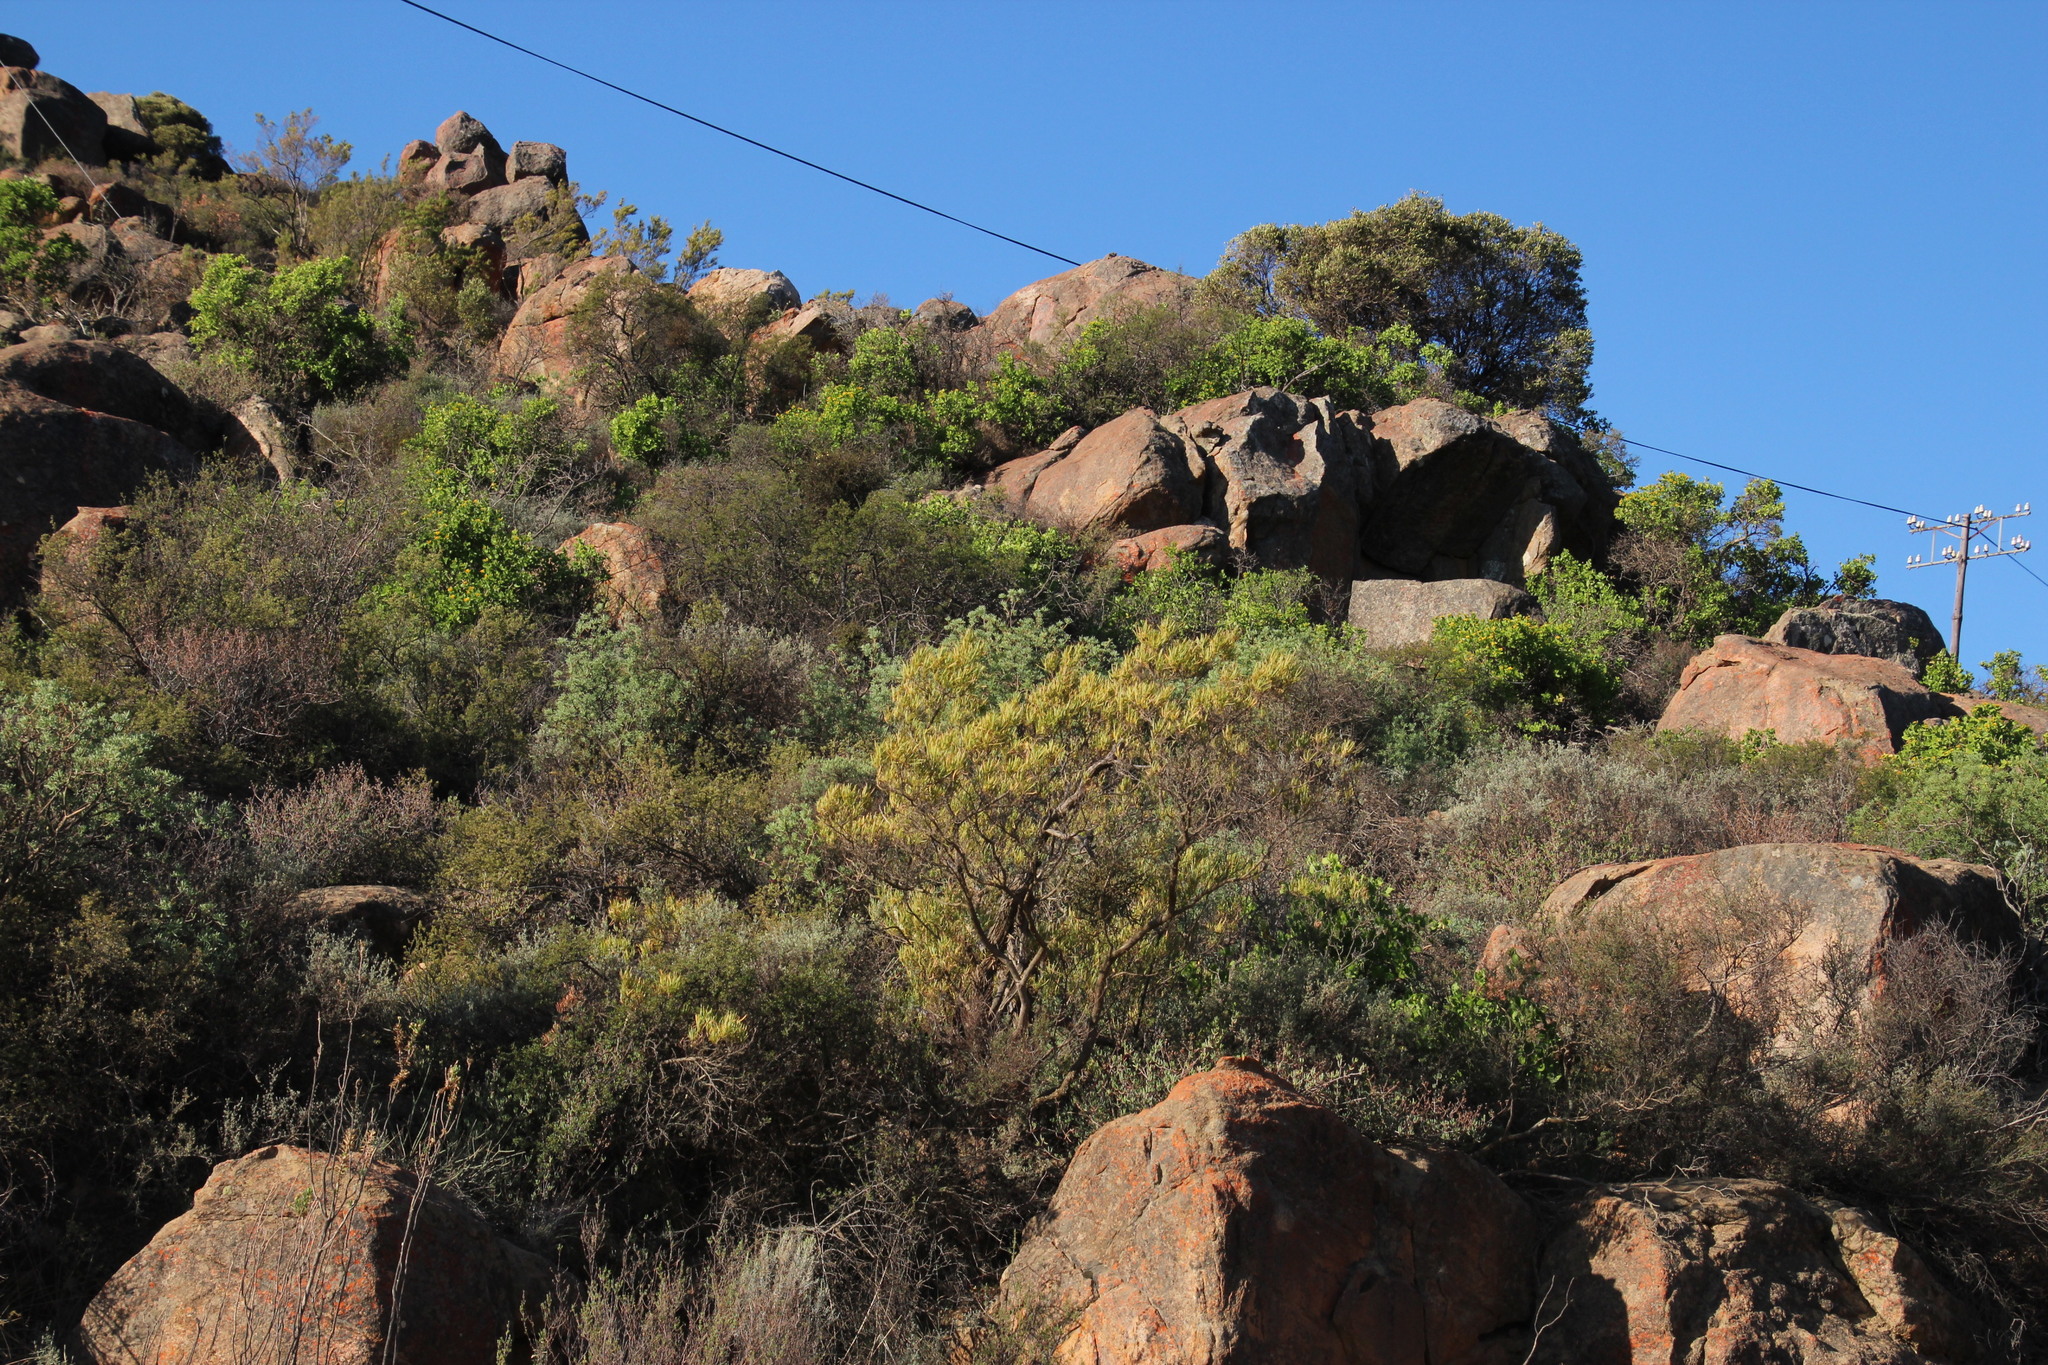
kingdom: Plantae
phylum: Tracheophyta
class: Magnoliopsida
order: Sapindales
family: Sapindaceae
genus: Dodonaea
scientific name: Dodonaea viscosa
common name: Hopbush
